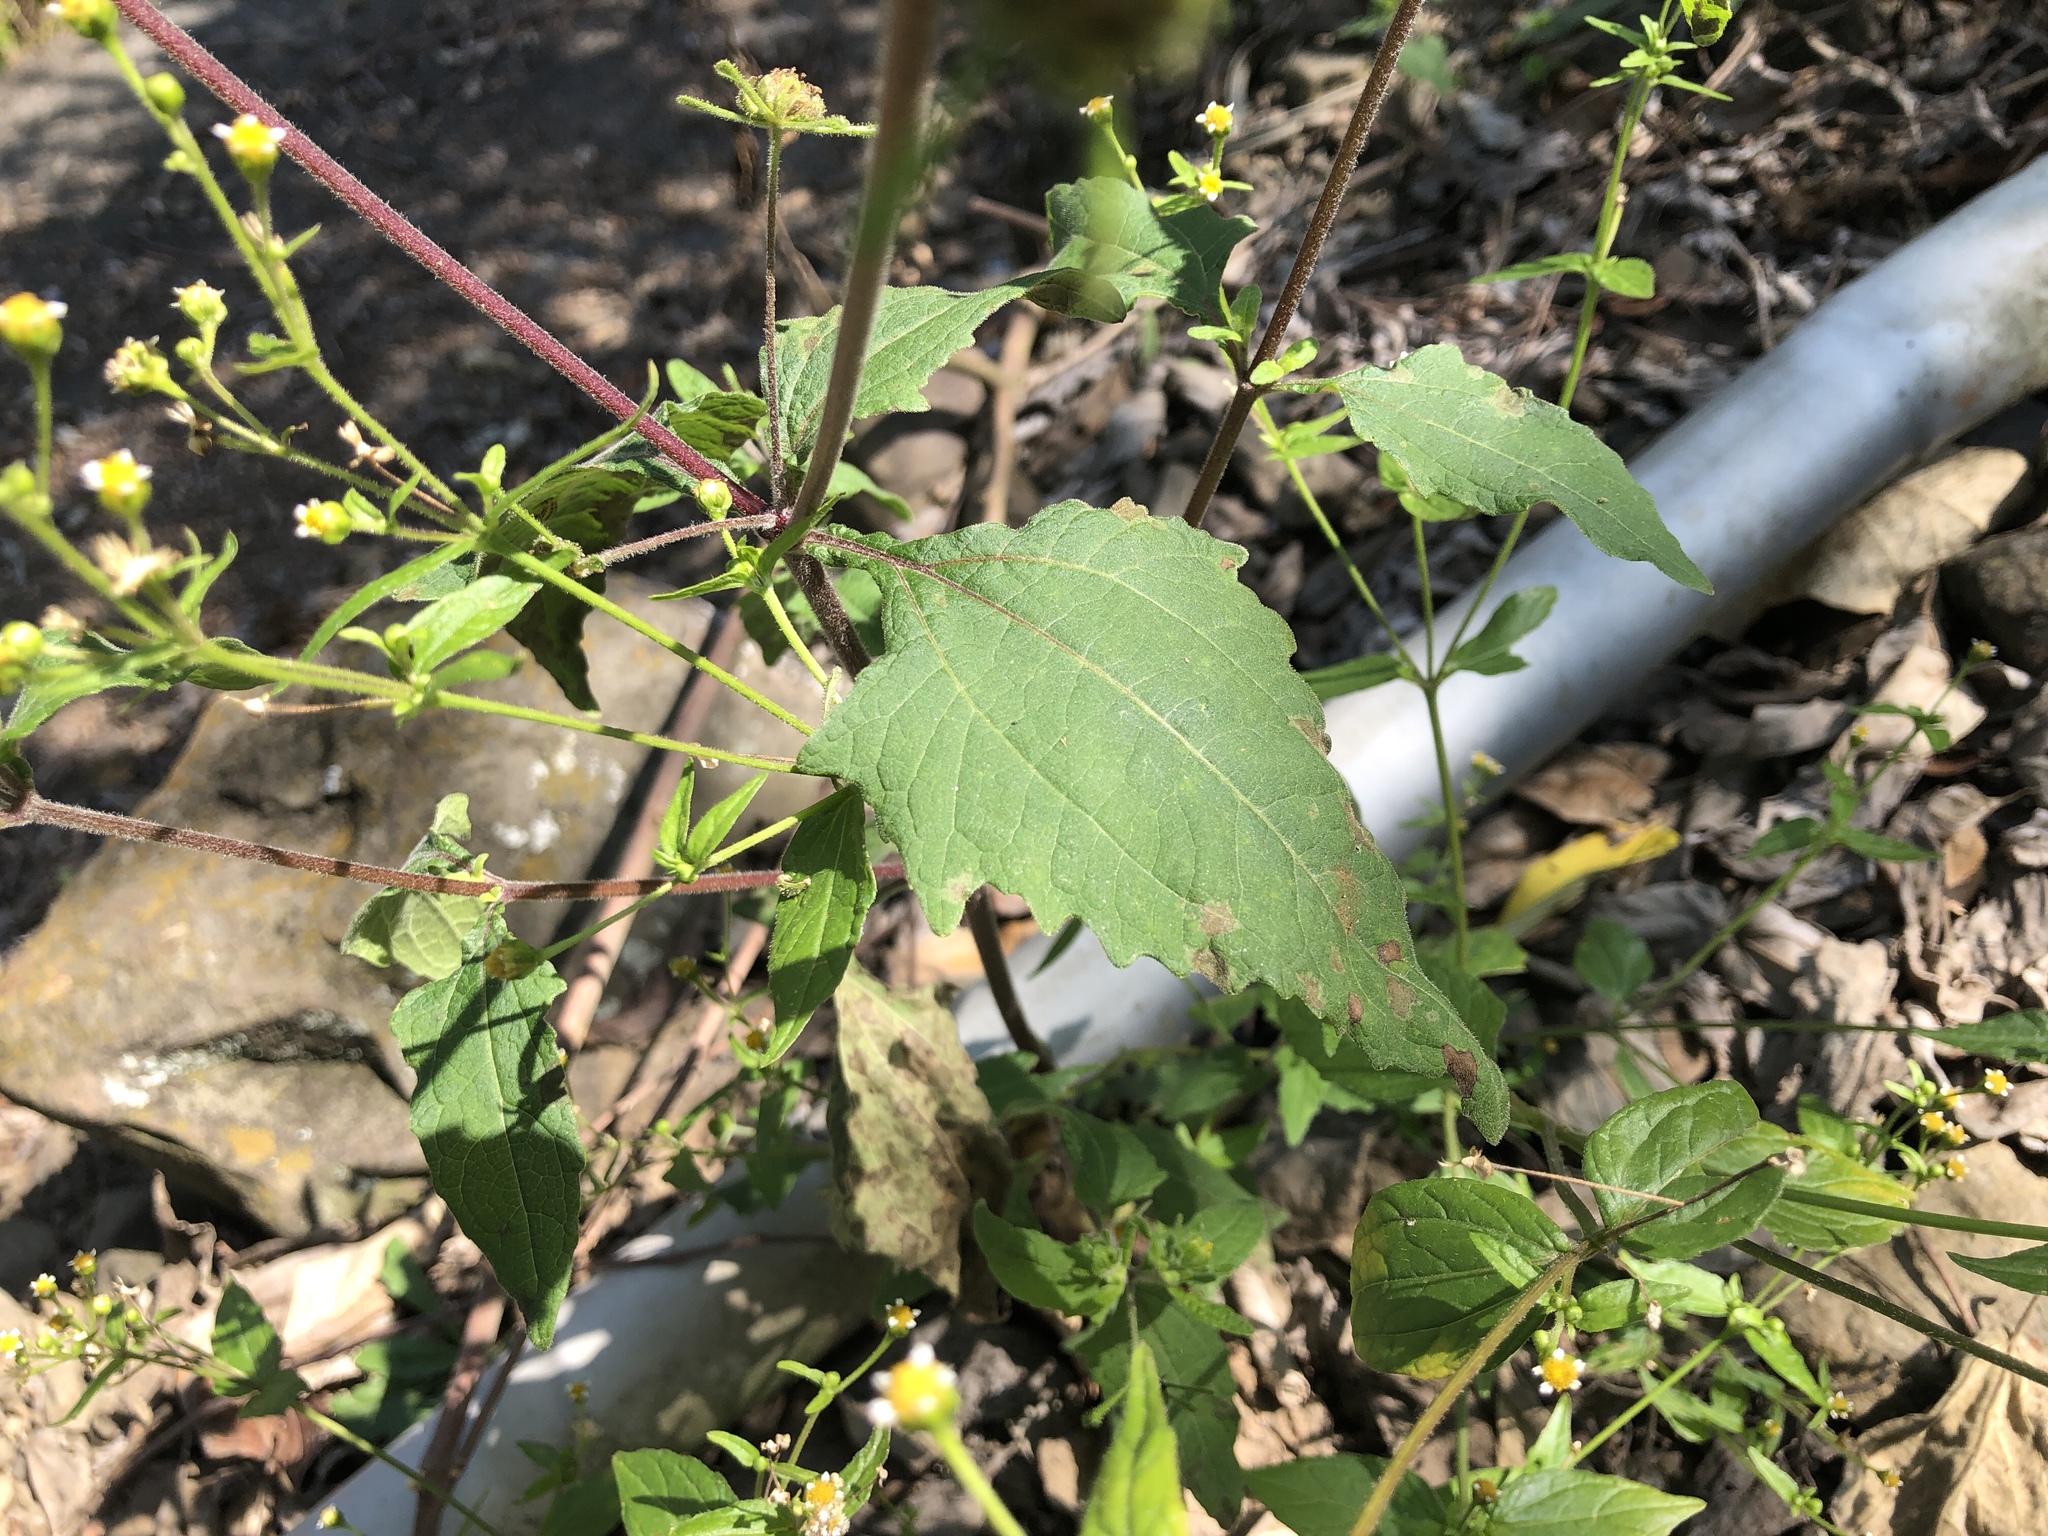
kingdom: Plantae
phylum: Tracheophyta
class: Magnoliopsida
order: Asterales
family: Asteraceae
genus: Sigesbeckia
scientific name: Sigesbeckia orientalis
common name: Eastern st paul's-wort
